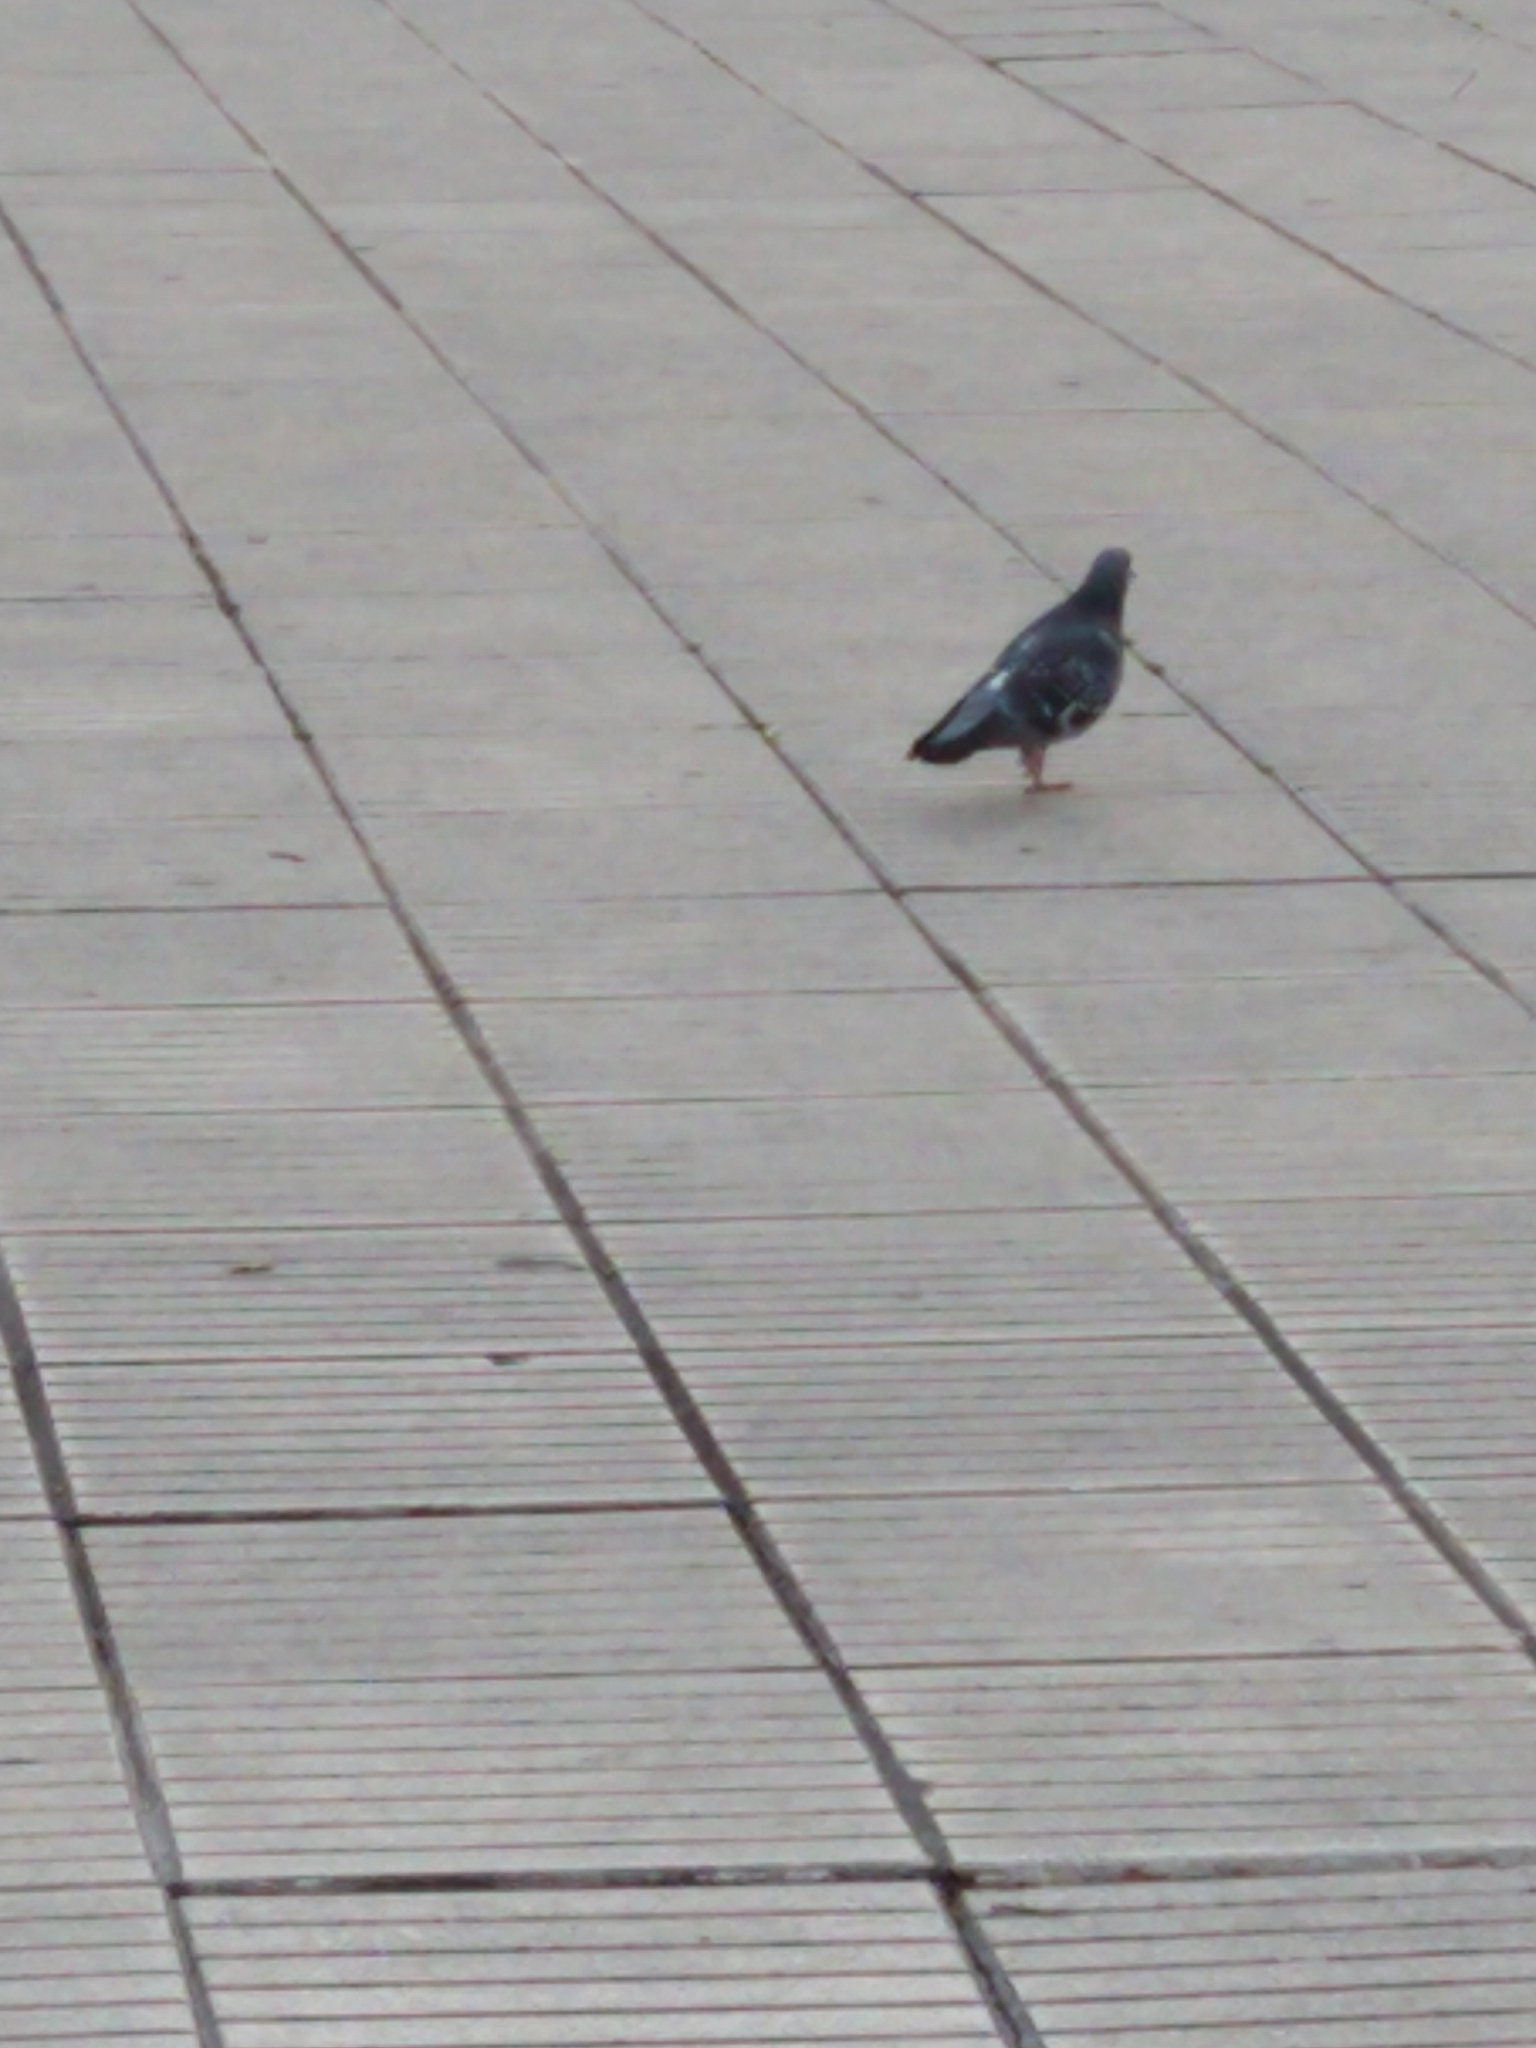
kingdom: Animalia
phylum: Chordata
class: Aves
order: Columbiformes
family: Columbidae
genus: Columba
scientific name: Columba livia
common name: Rock pigeon
